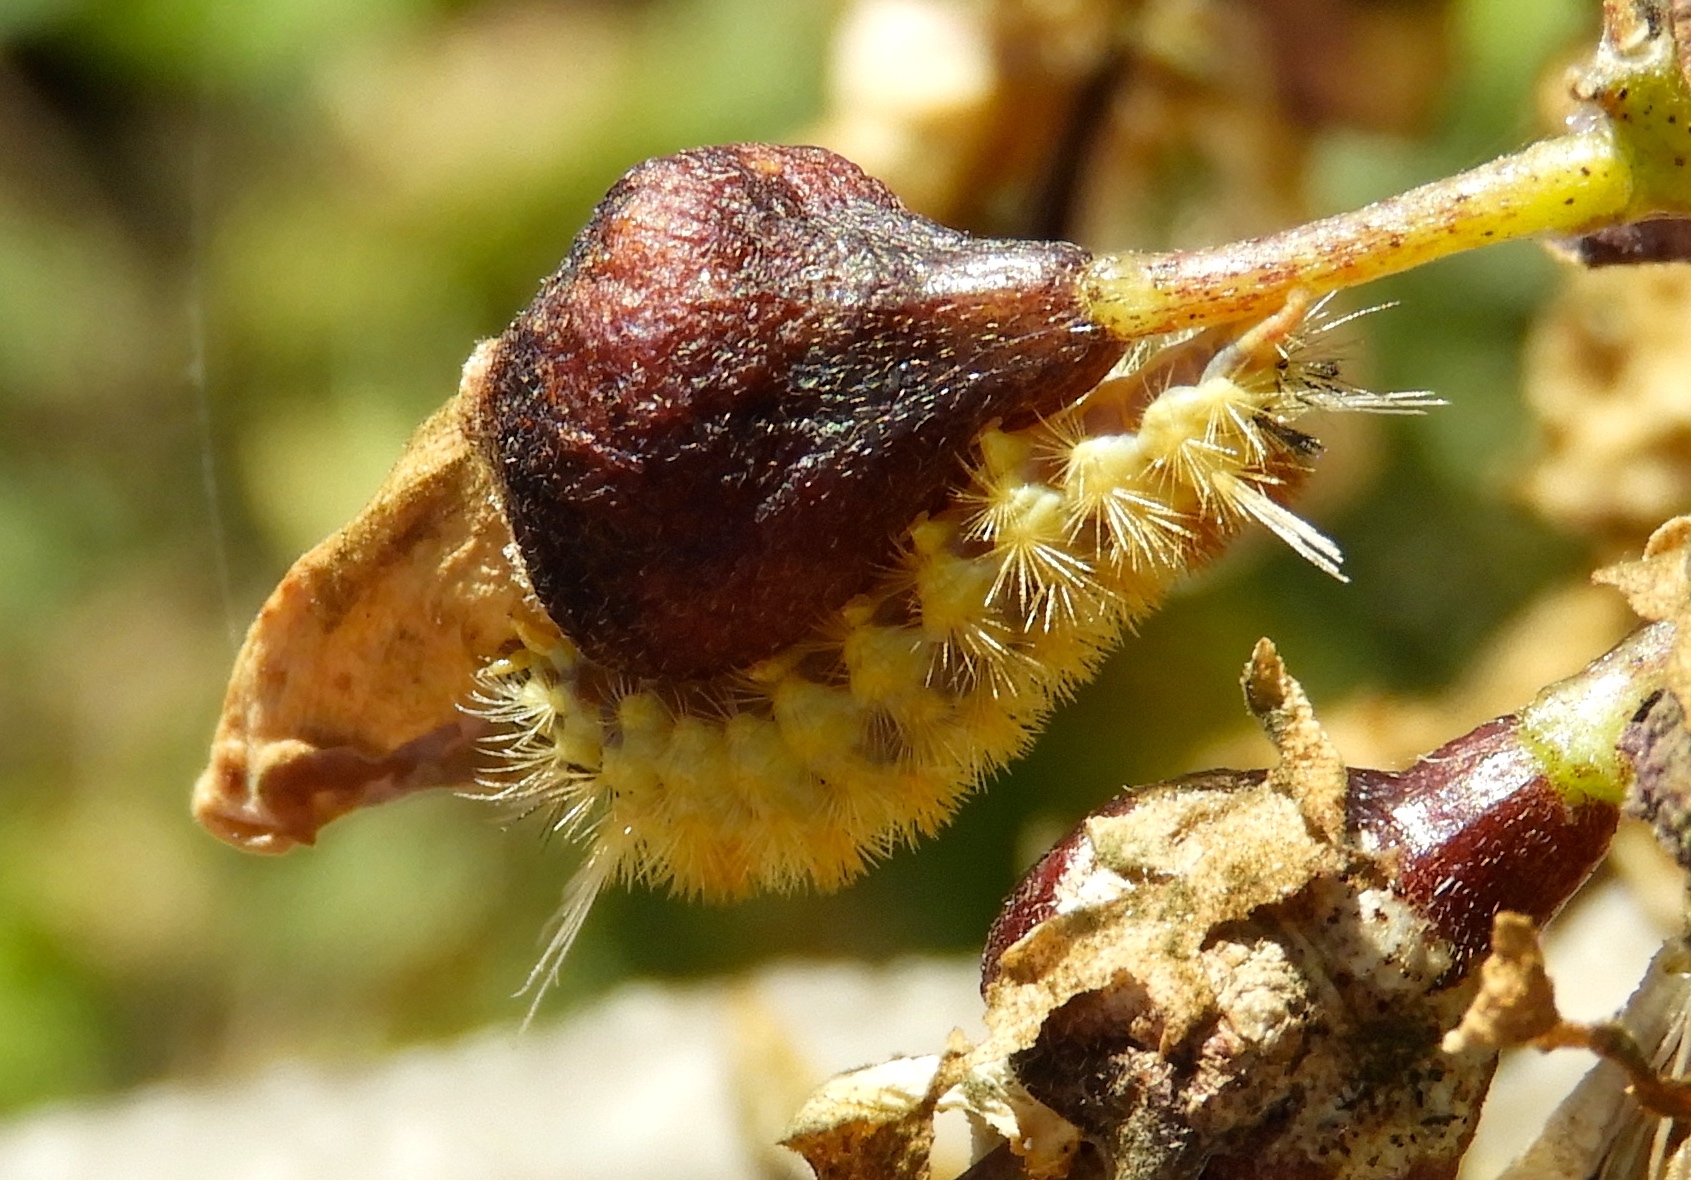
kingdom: Animalia
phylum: Arthropoda
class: Insecta
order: Lepidoptera
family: Erebidae
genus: Lophocampa
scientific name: Lophocampa
